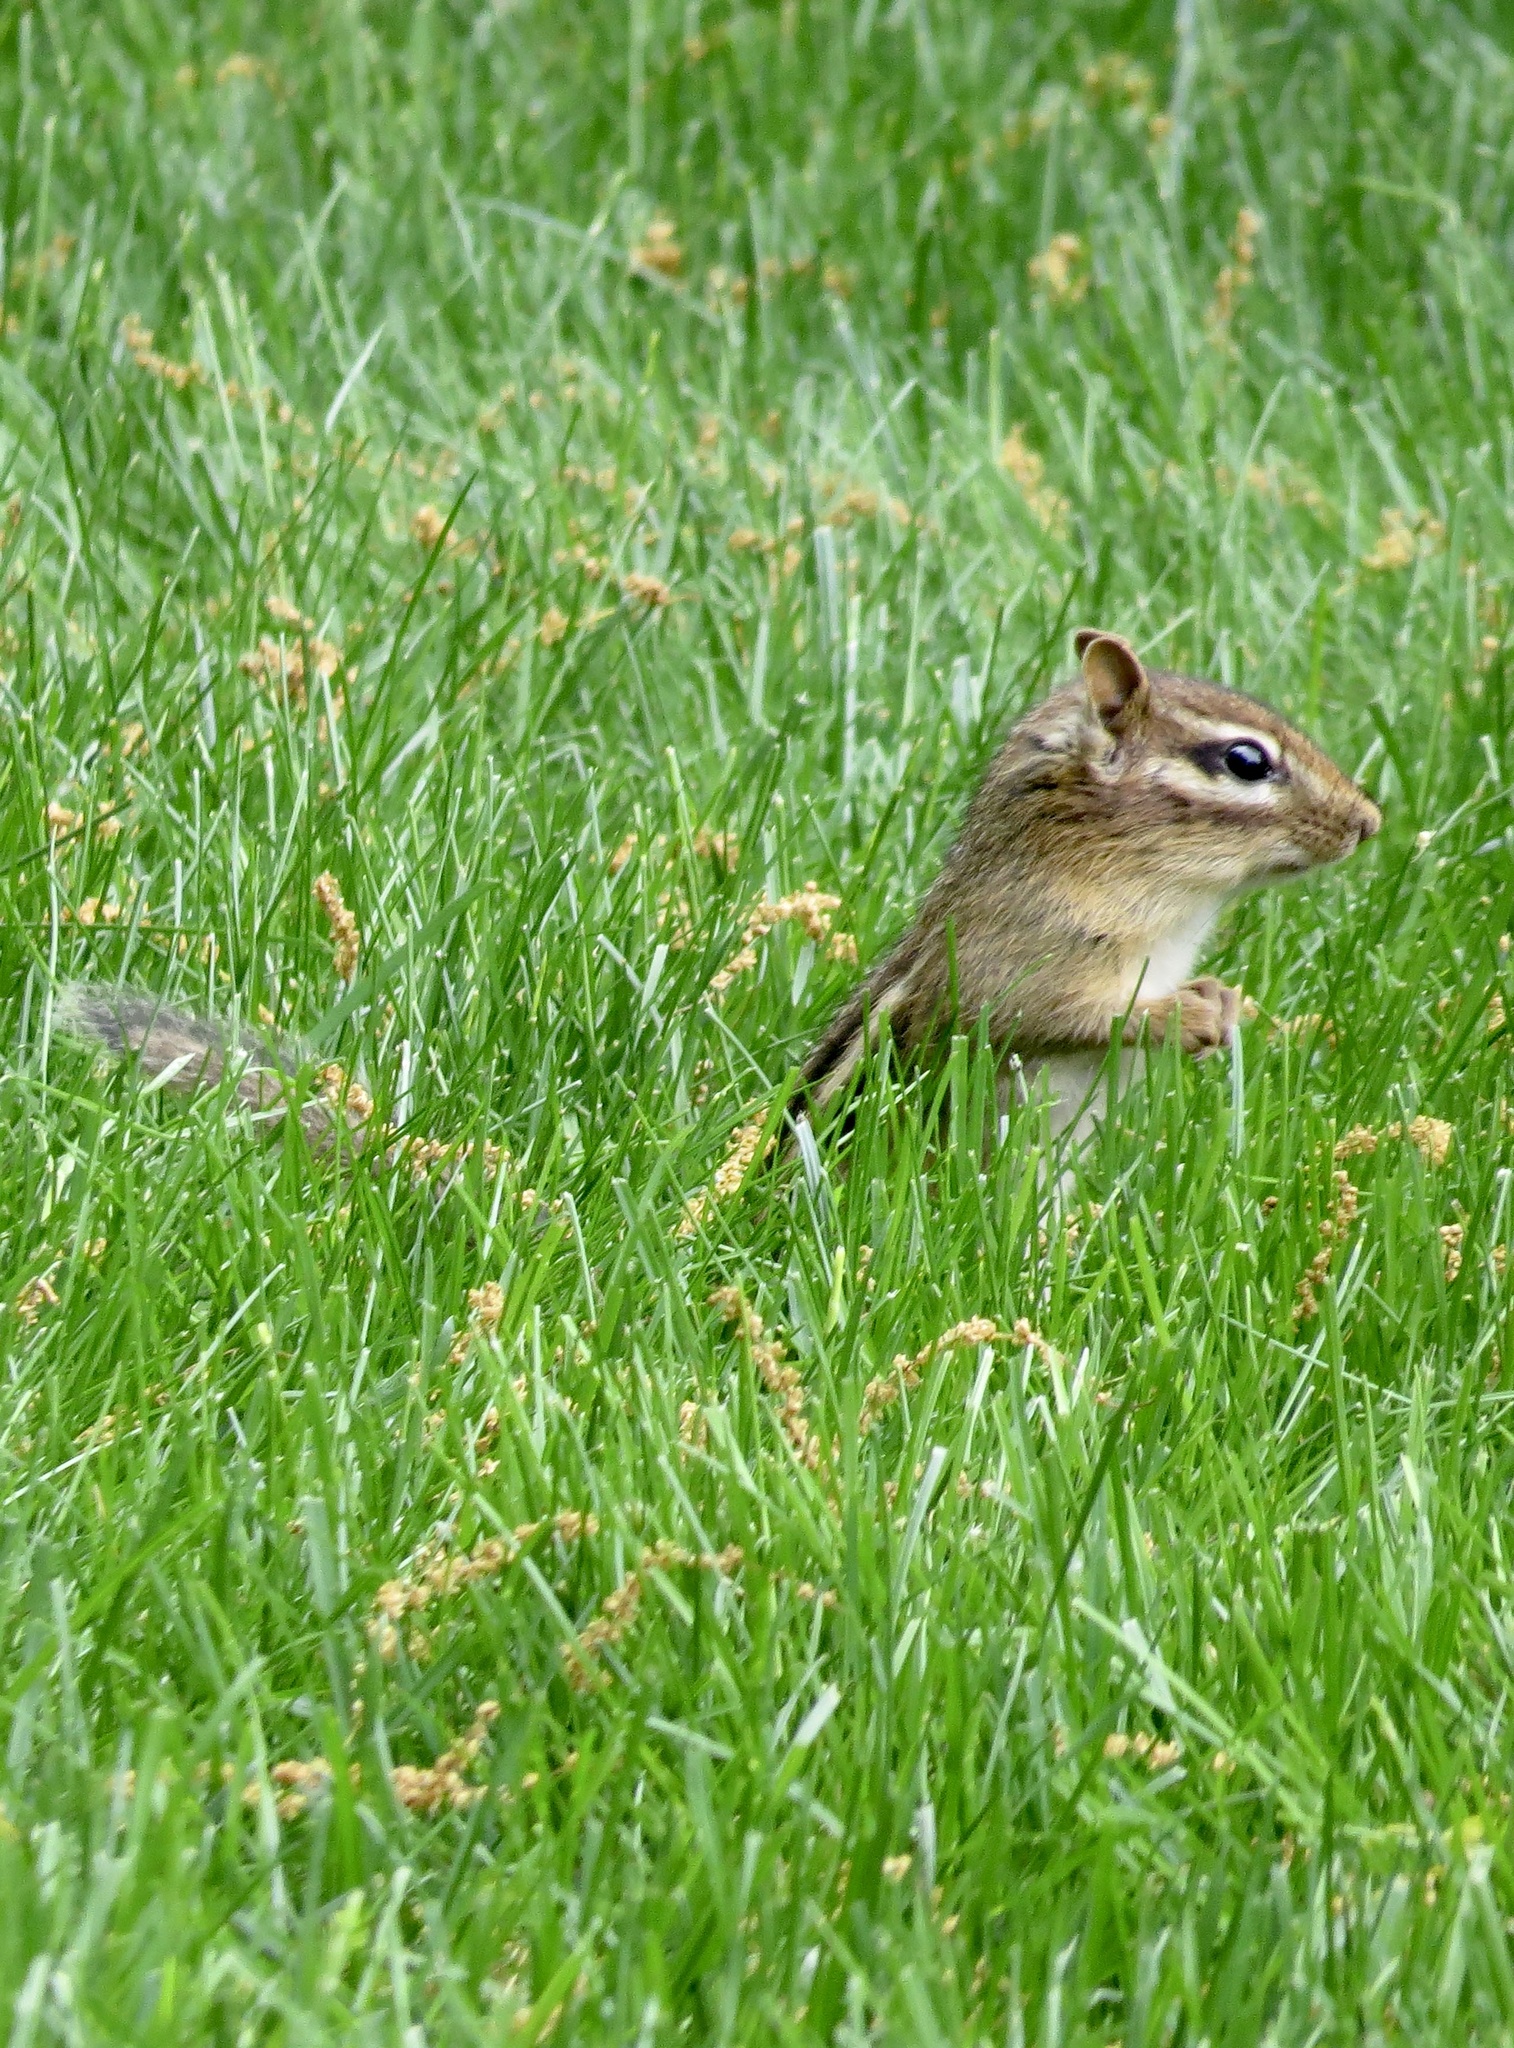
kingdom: Animalia
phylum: Chordata
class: Mammalia
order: Rodentia
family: Sciuridae
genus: Tamias
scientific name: Tamias striatus
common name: Eastern chipmunk
